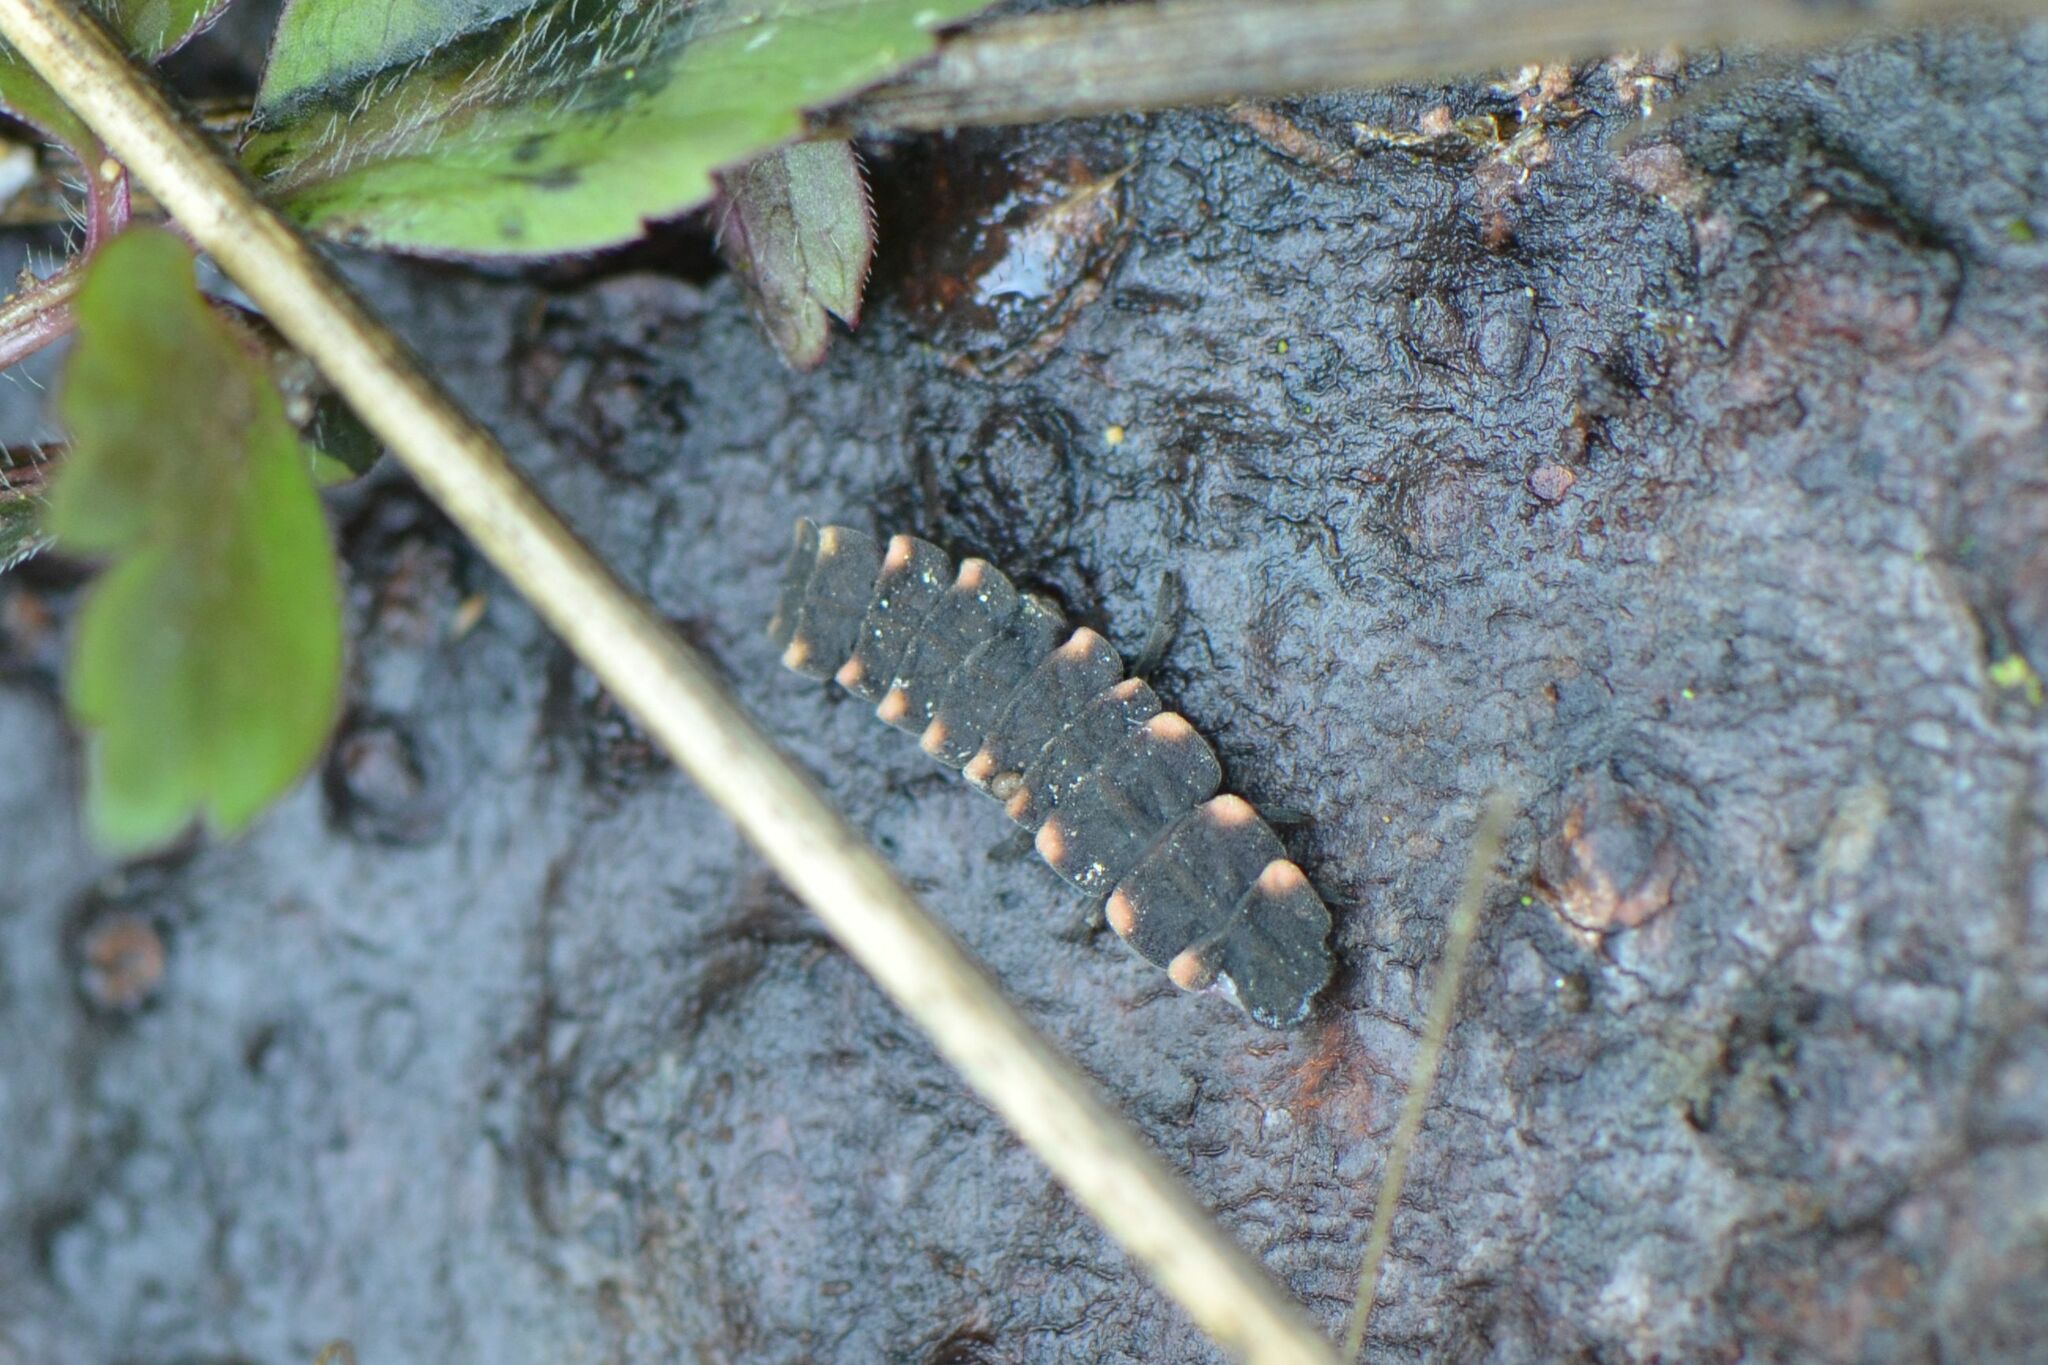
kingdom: Animalia
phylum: Arthropoda
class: Insecta
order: Coleoptera
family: Lampyridae
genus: Lampyris
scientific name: Lampyris noctiluca
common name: Glow-worm
